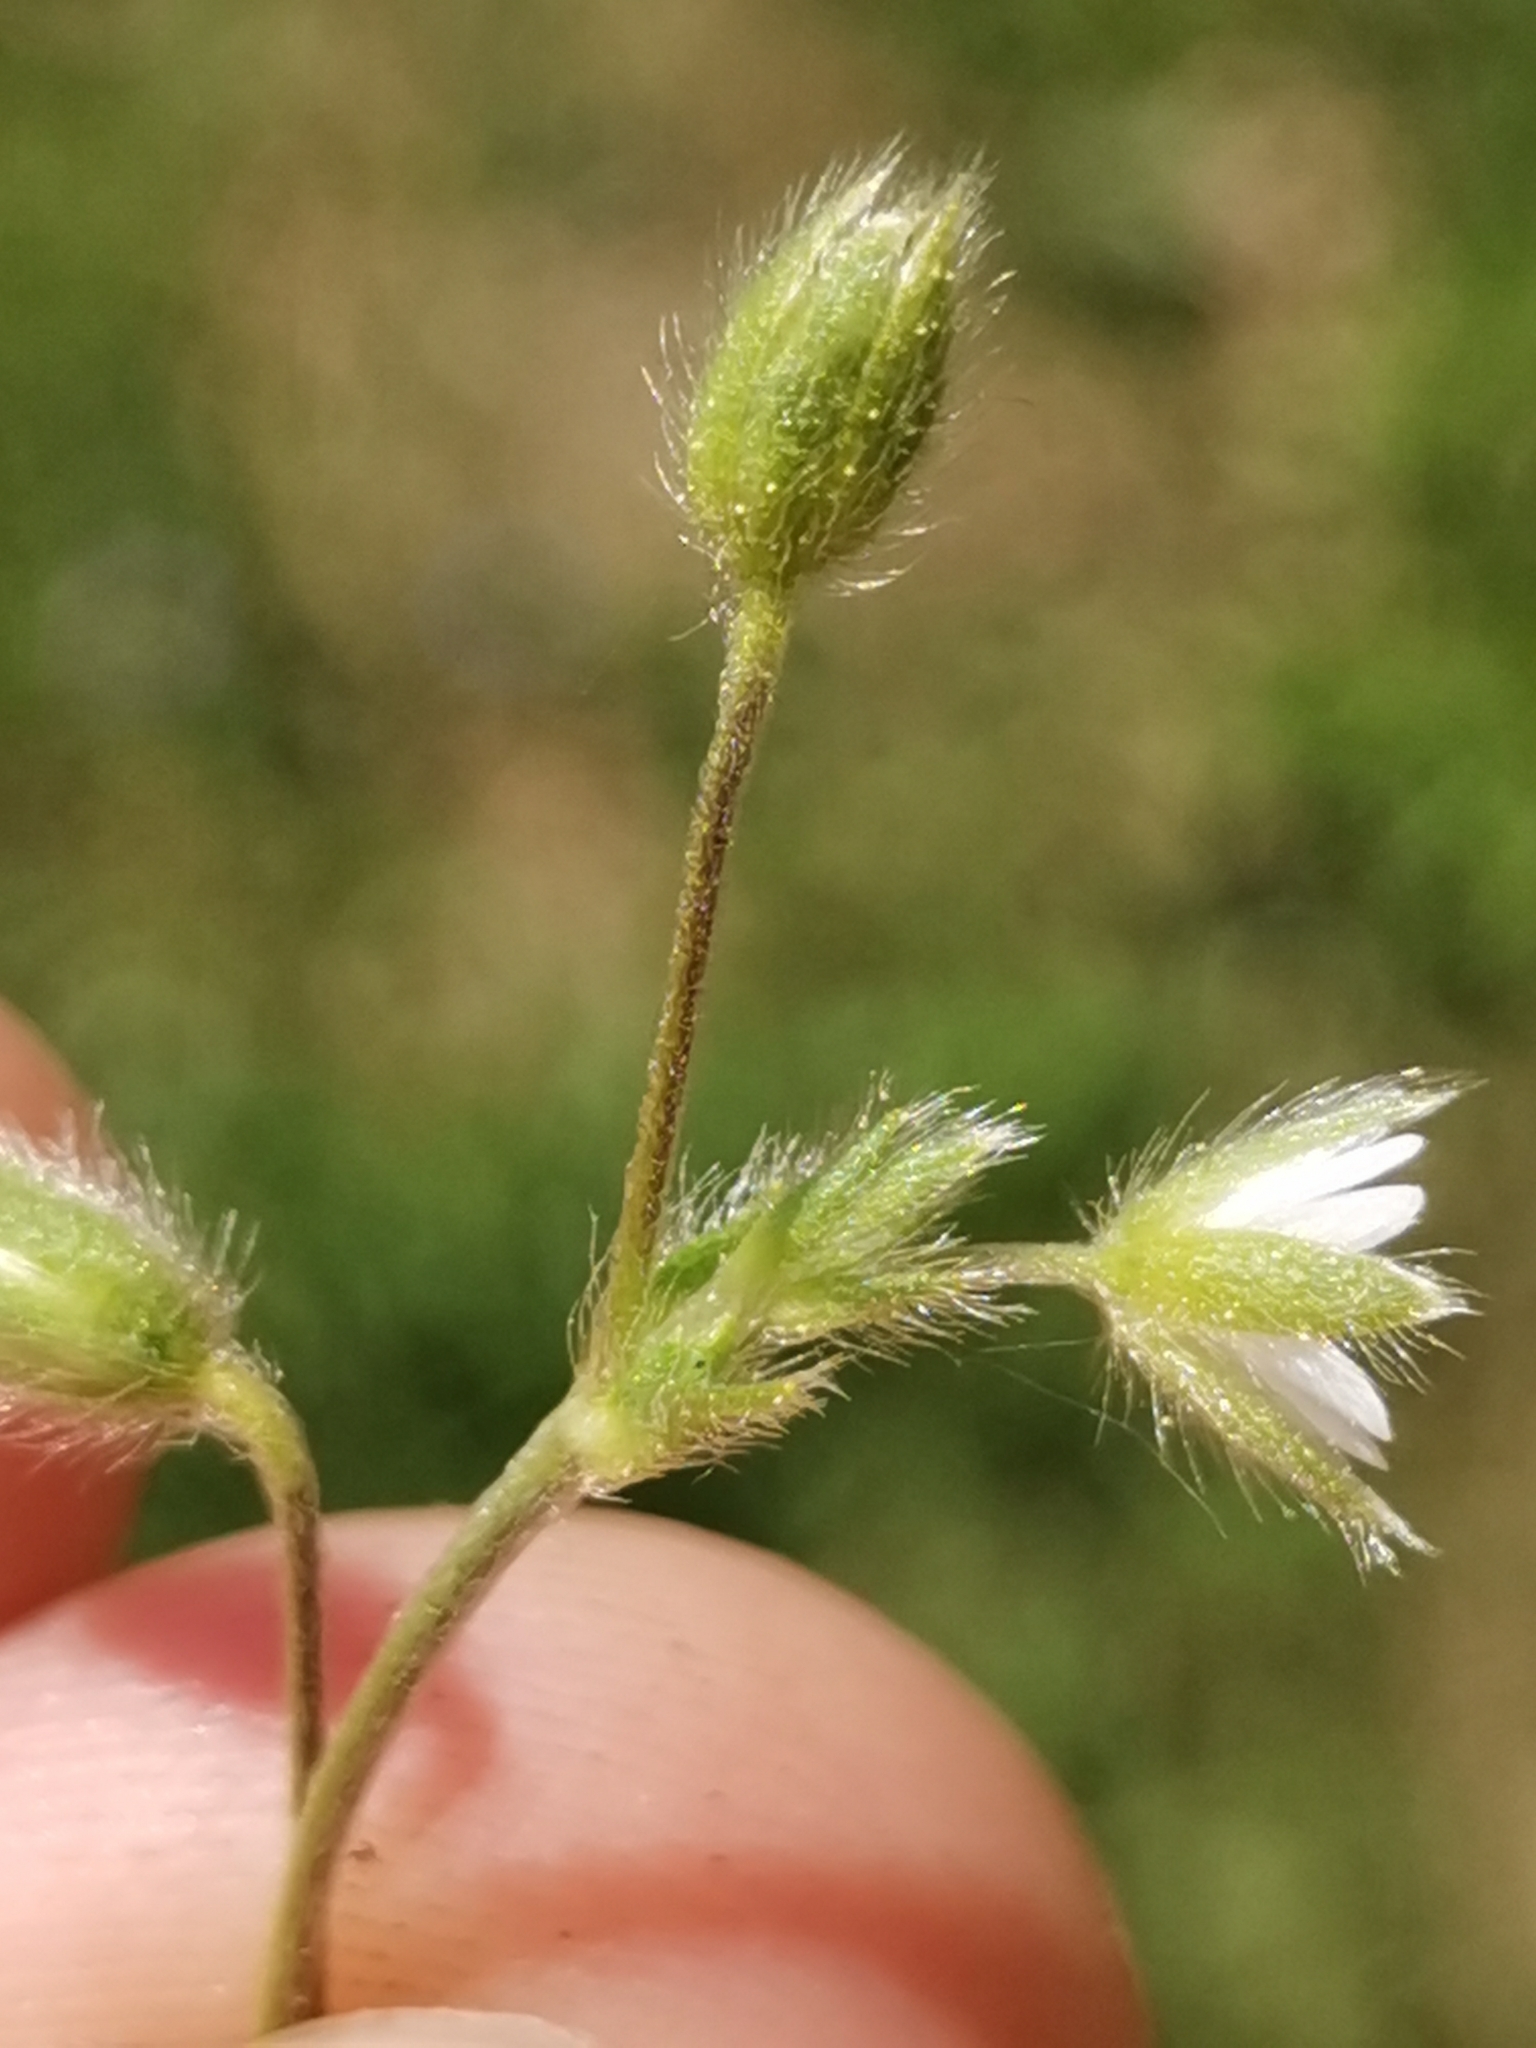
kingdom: Plantae
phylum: Tracheophyta
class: Magnoliopsida
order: Caryophyllales
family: Caryophyllaceae
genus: Cerastium
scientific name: Cerastium tenoreanum
